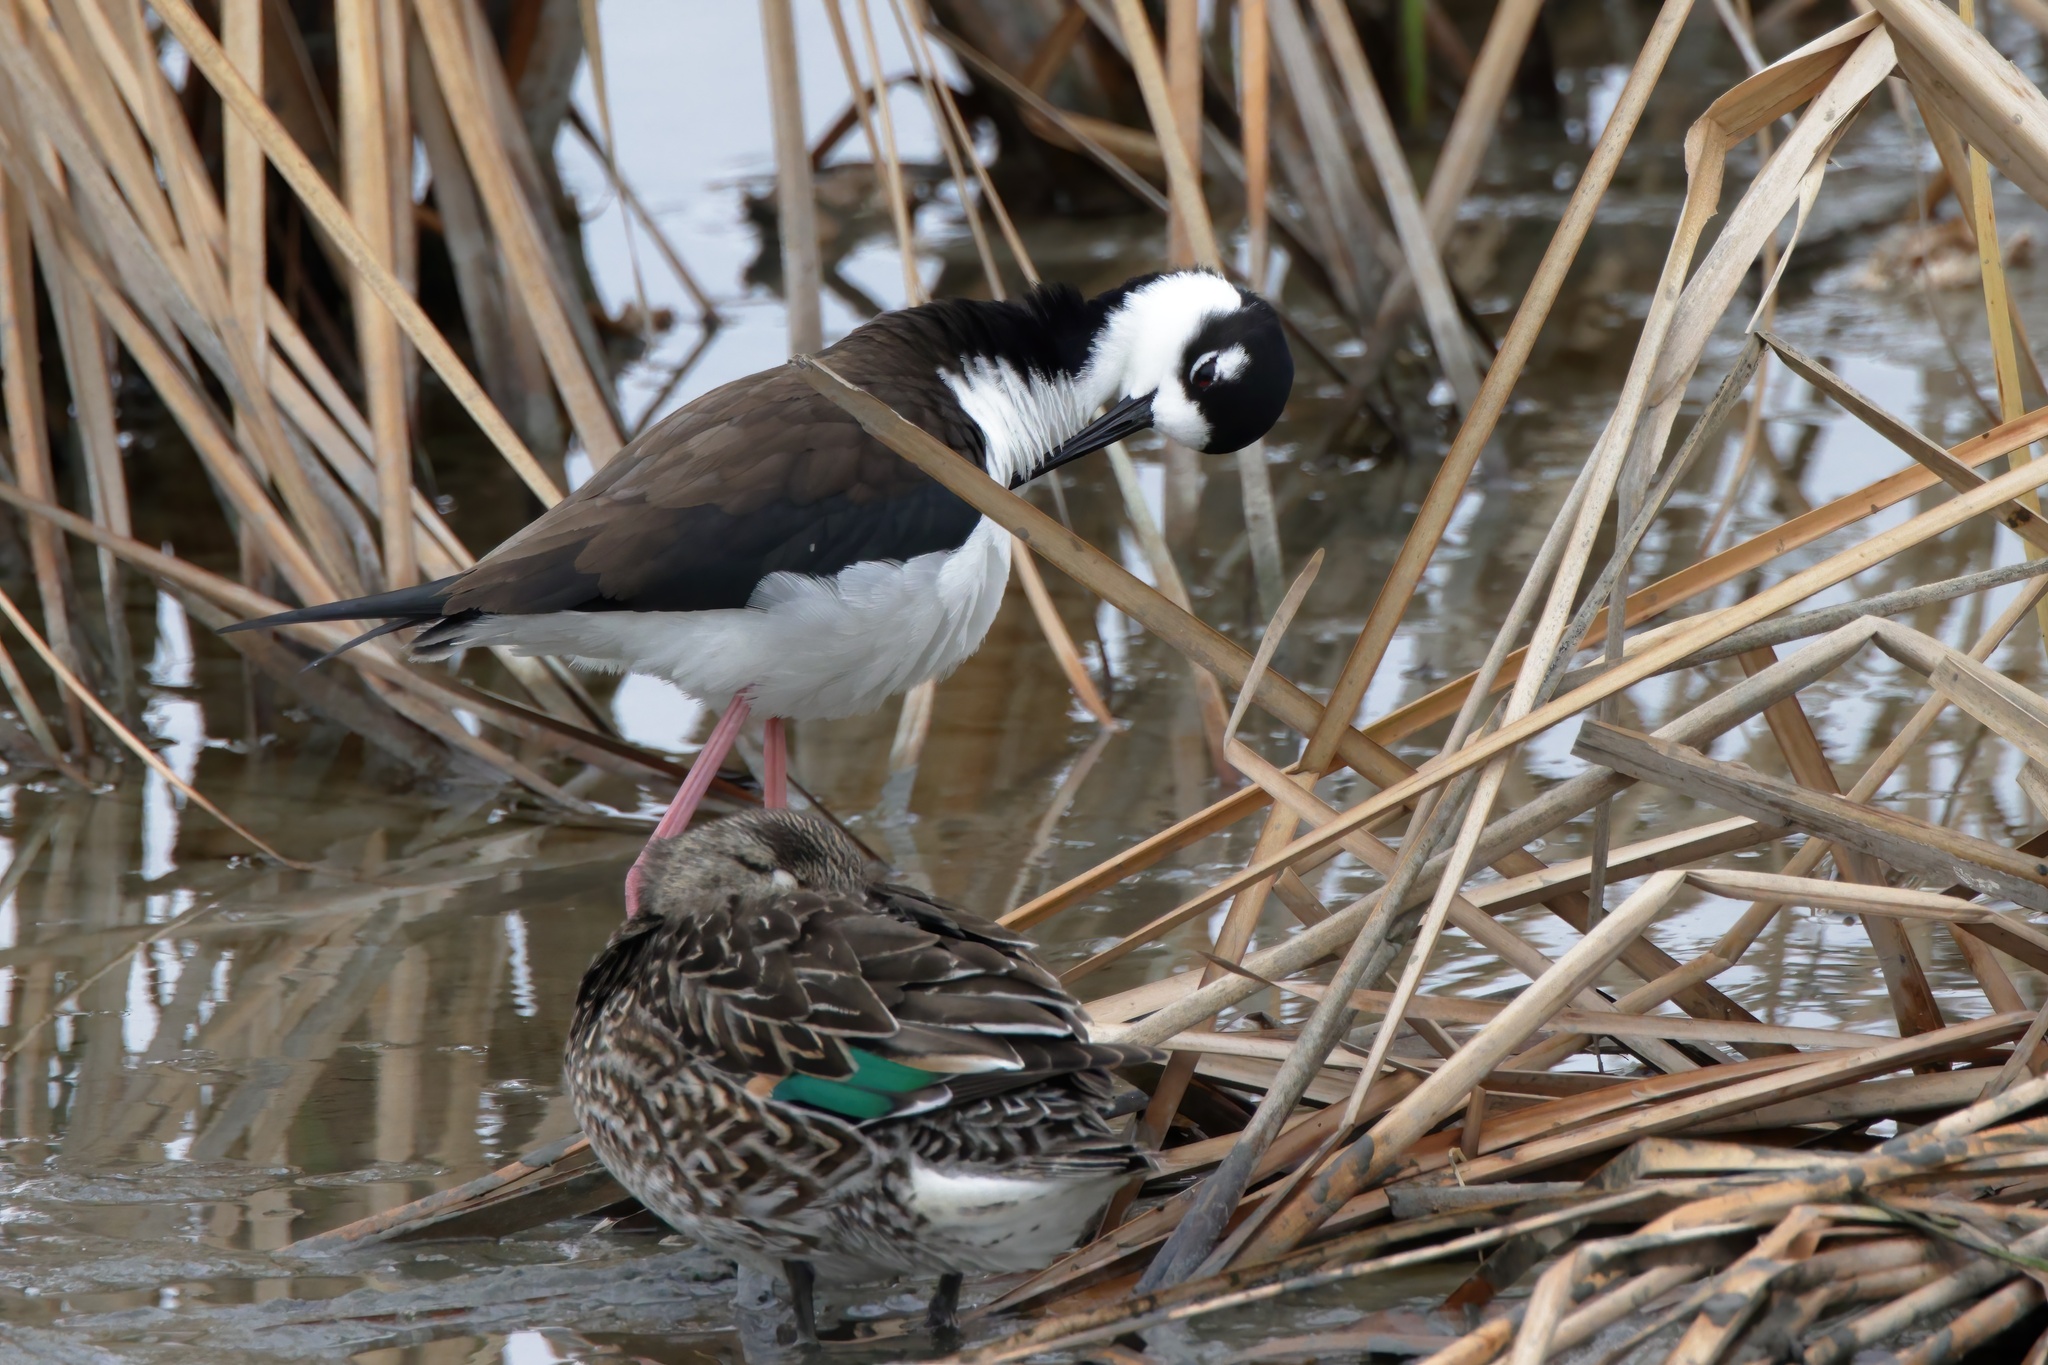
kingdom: Animalia
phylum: Chordata
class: Aves
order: Charadriiformes
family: Recurvirostridae
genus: Himantopus
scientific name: Himantopus mexicanus
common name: Black-necked stilt
